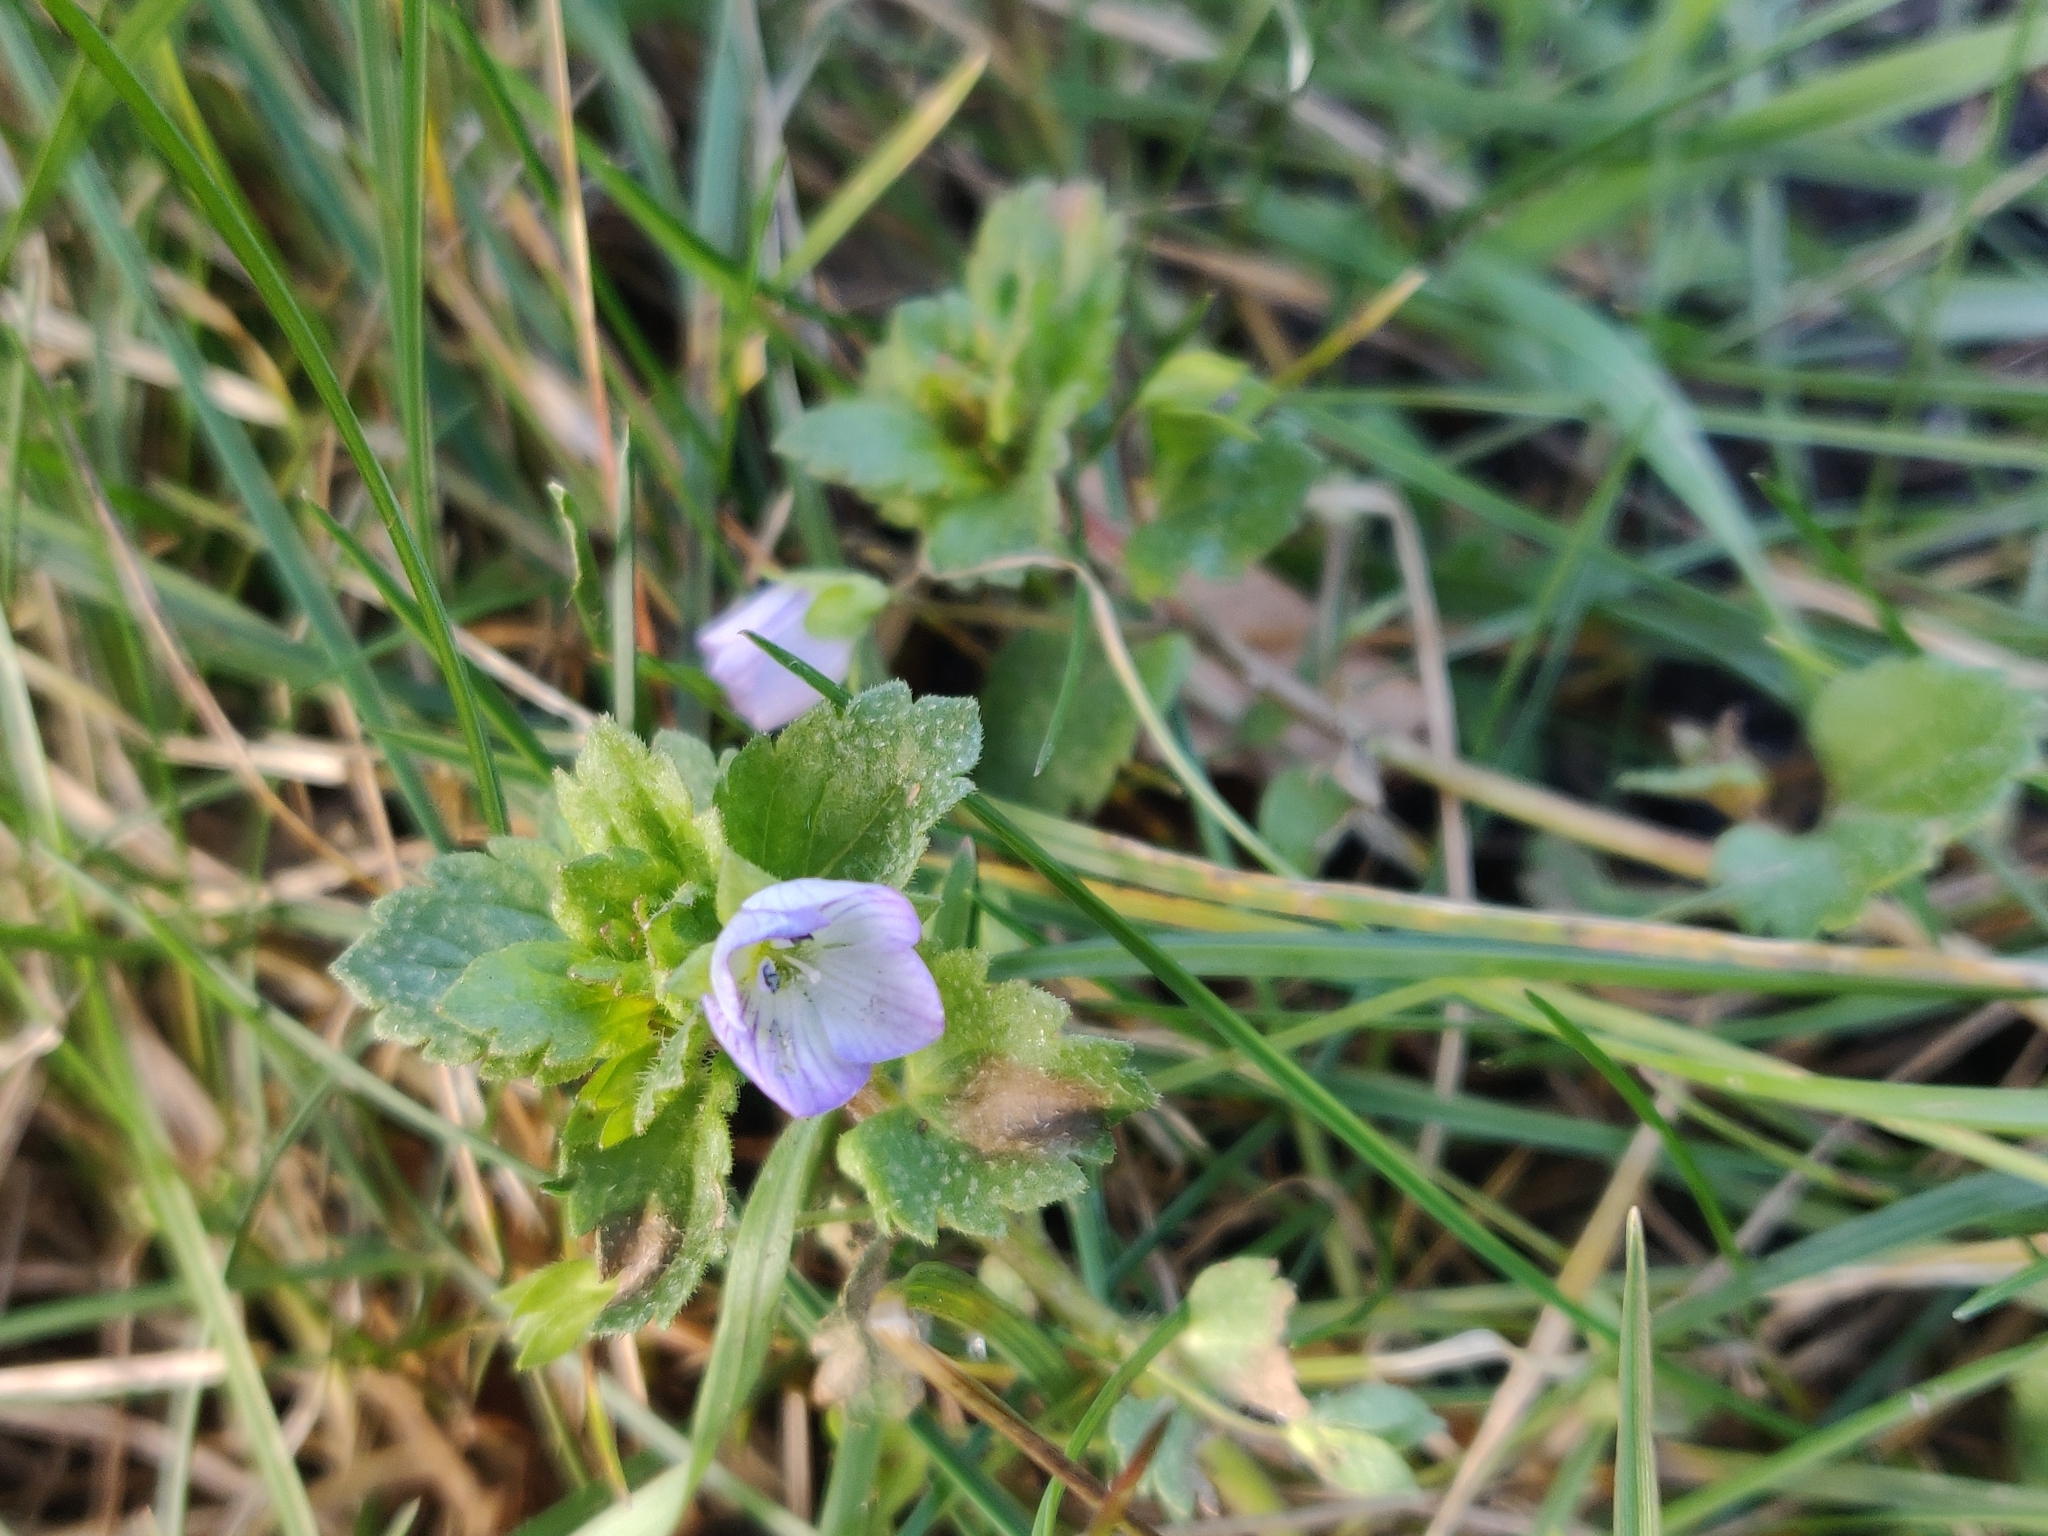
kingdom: Plantae
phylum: Tracheophyta
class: Magnoliopsida
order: Lamiales
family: Plantaginaceae
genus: Veronica
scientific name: Veronica persica
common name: Common field-speedwell
